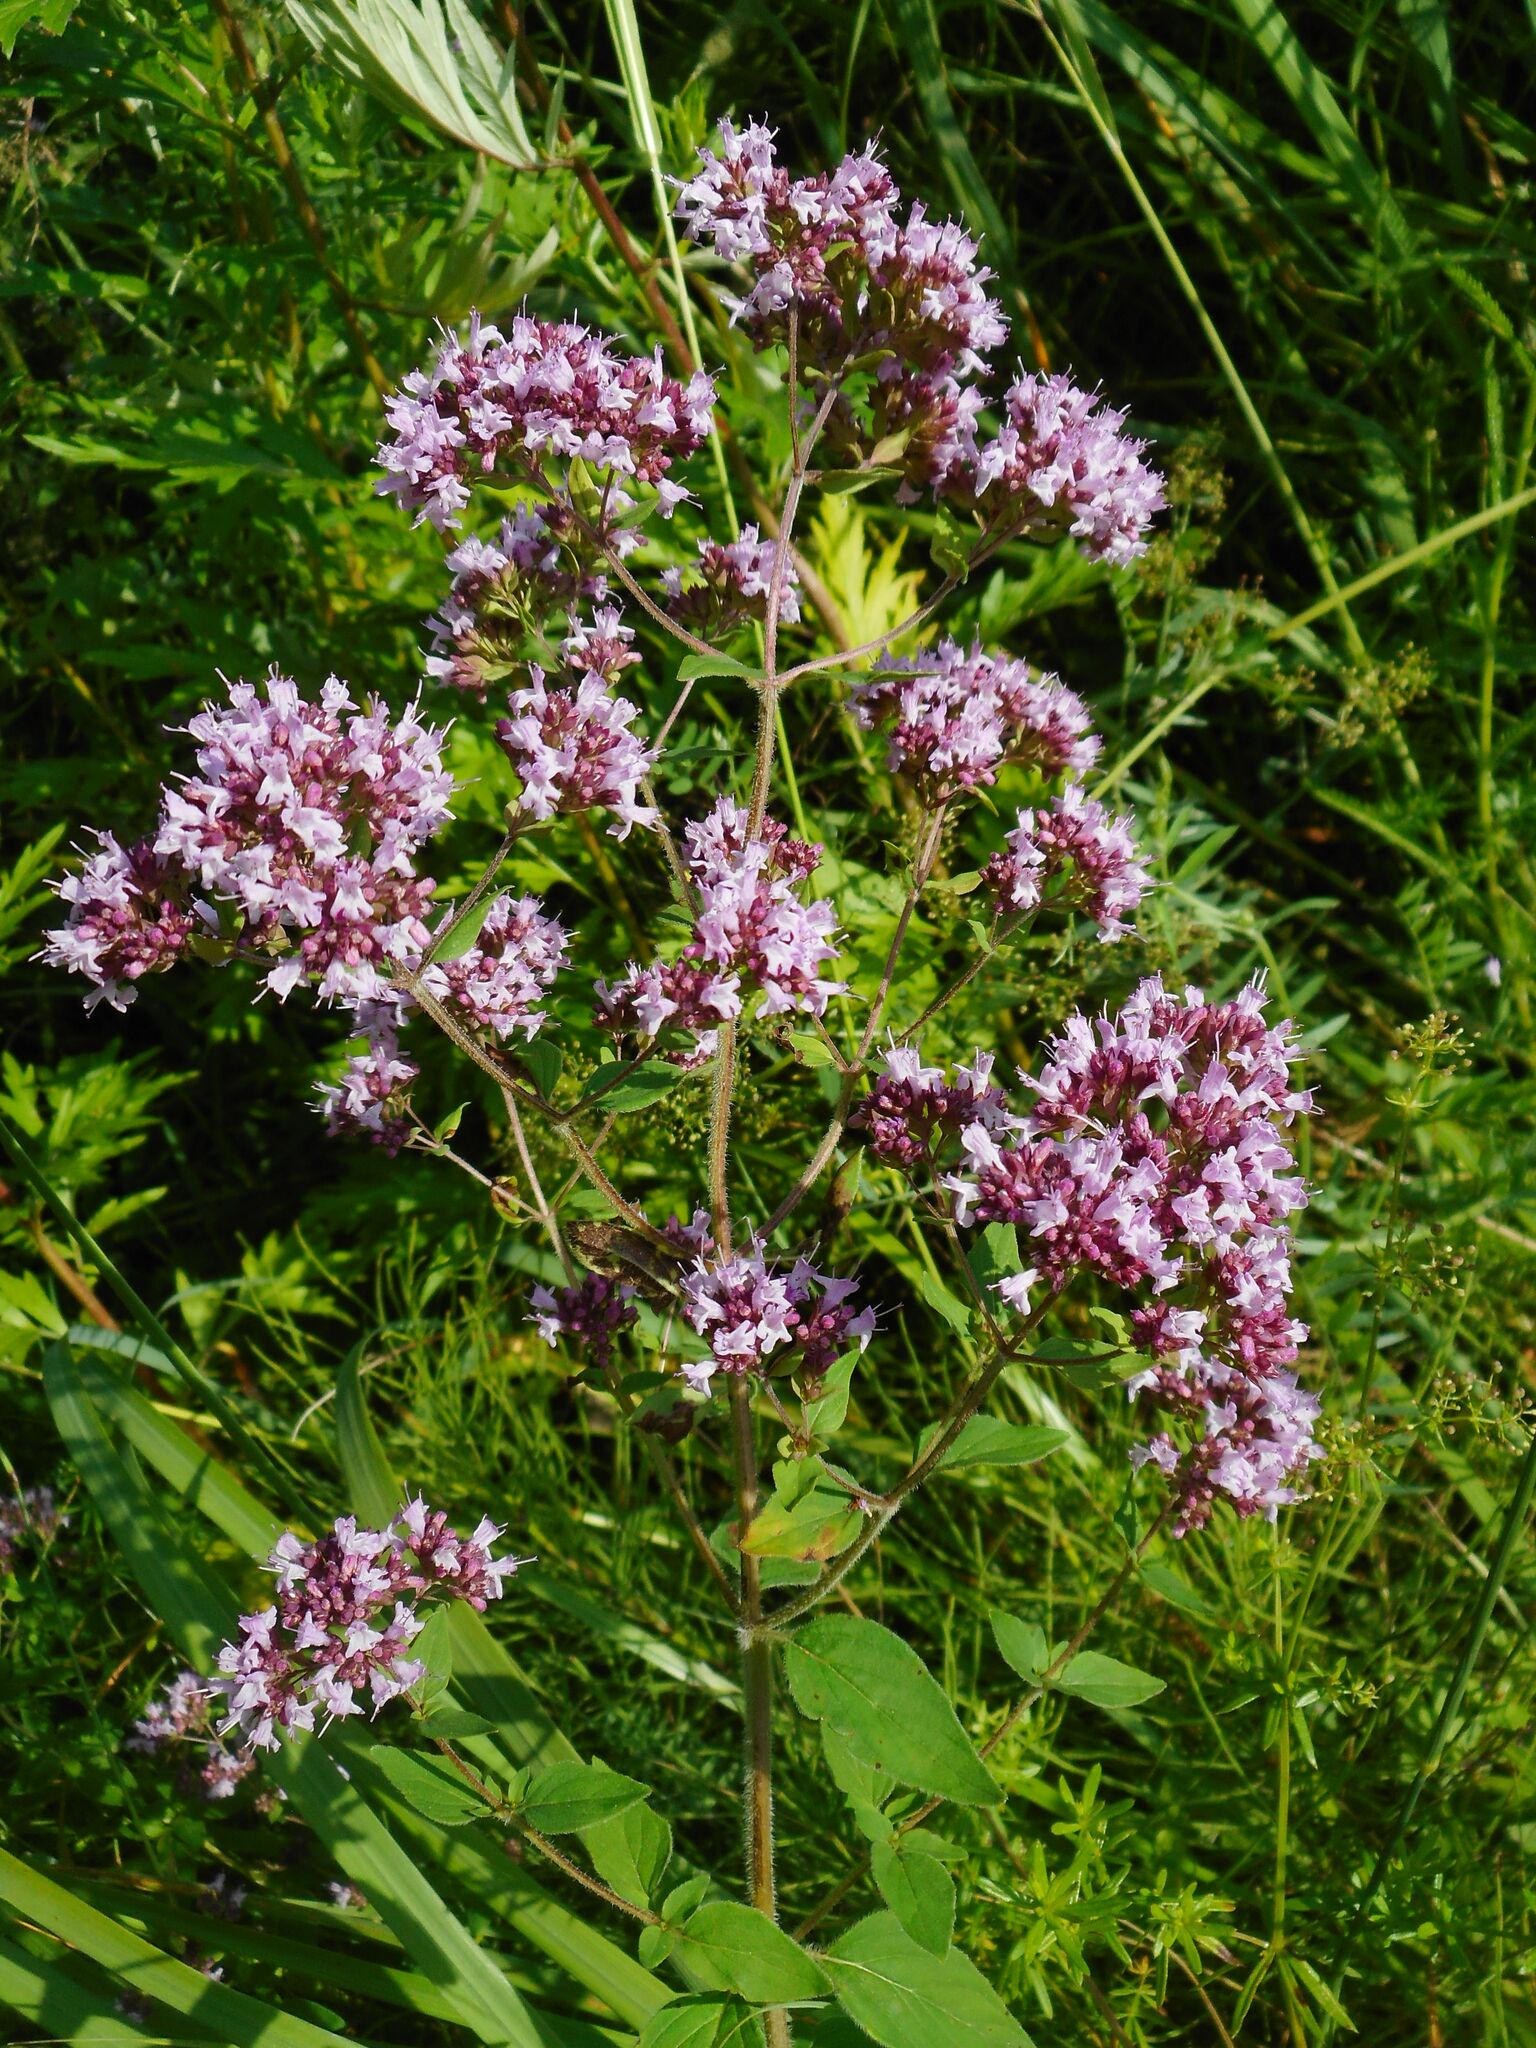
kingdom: Plantae
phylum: Tracheophyta
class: Magnoliopsida
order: Lamiales
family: Lamiaceae
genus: Origanum
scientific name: Origanum vulgare
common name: Wild marjoram
